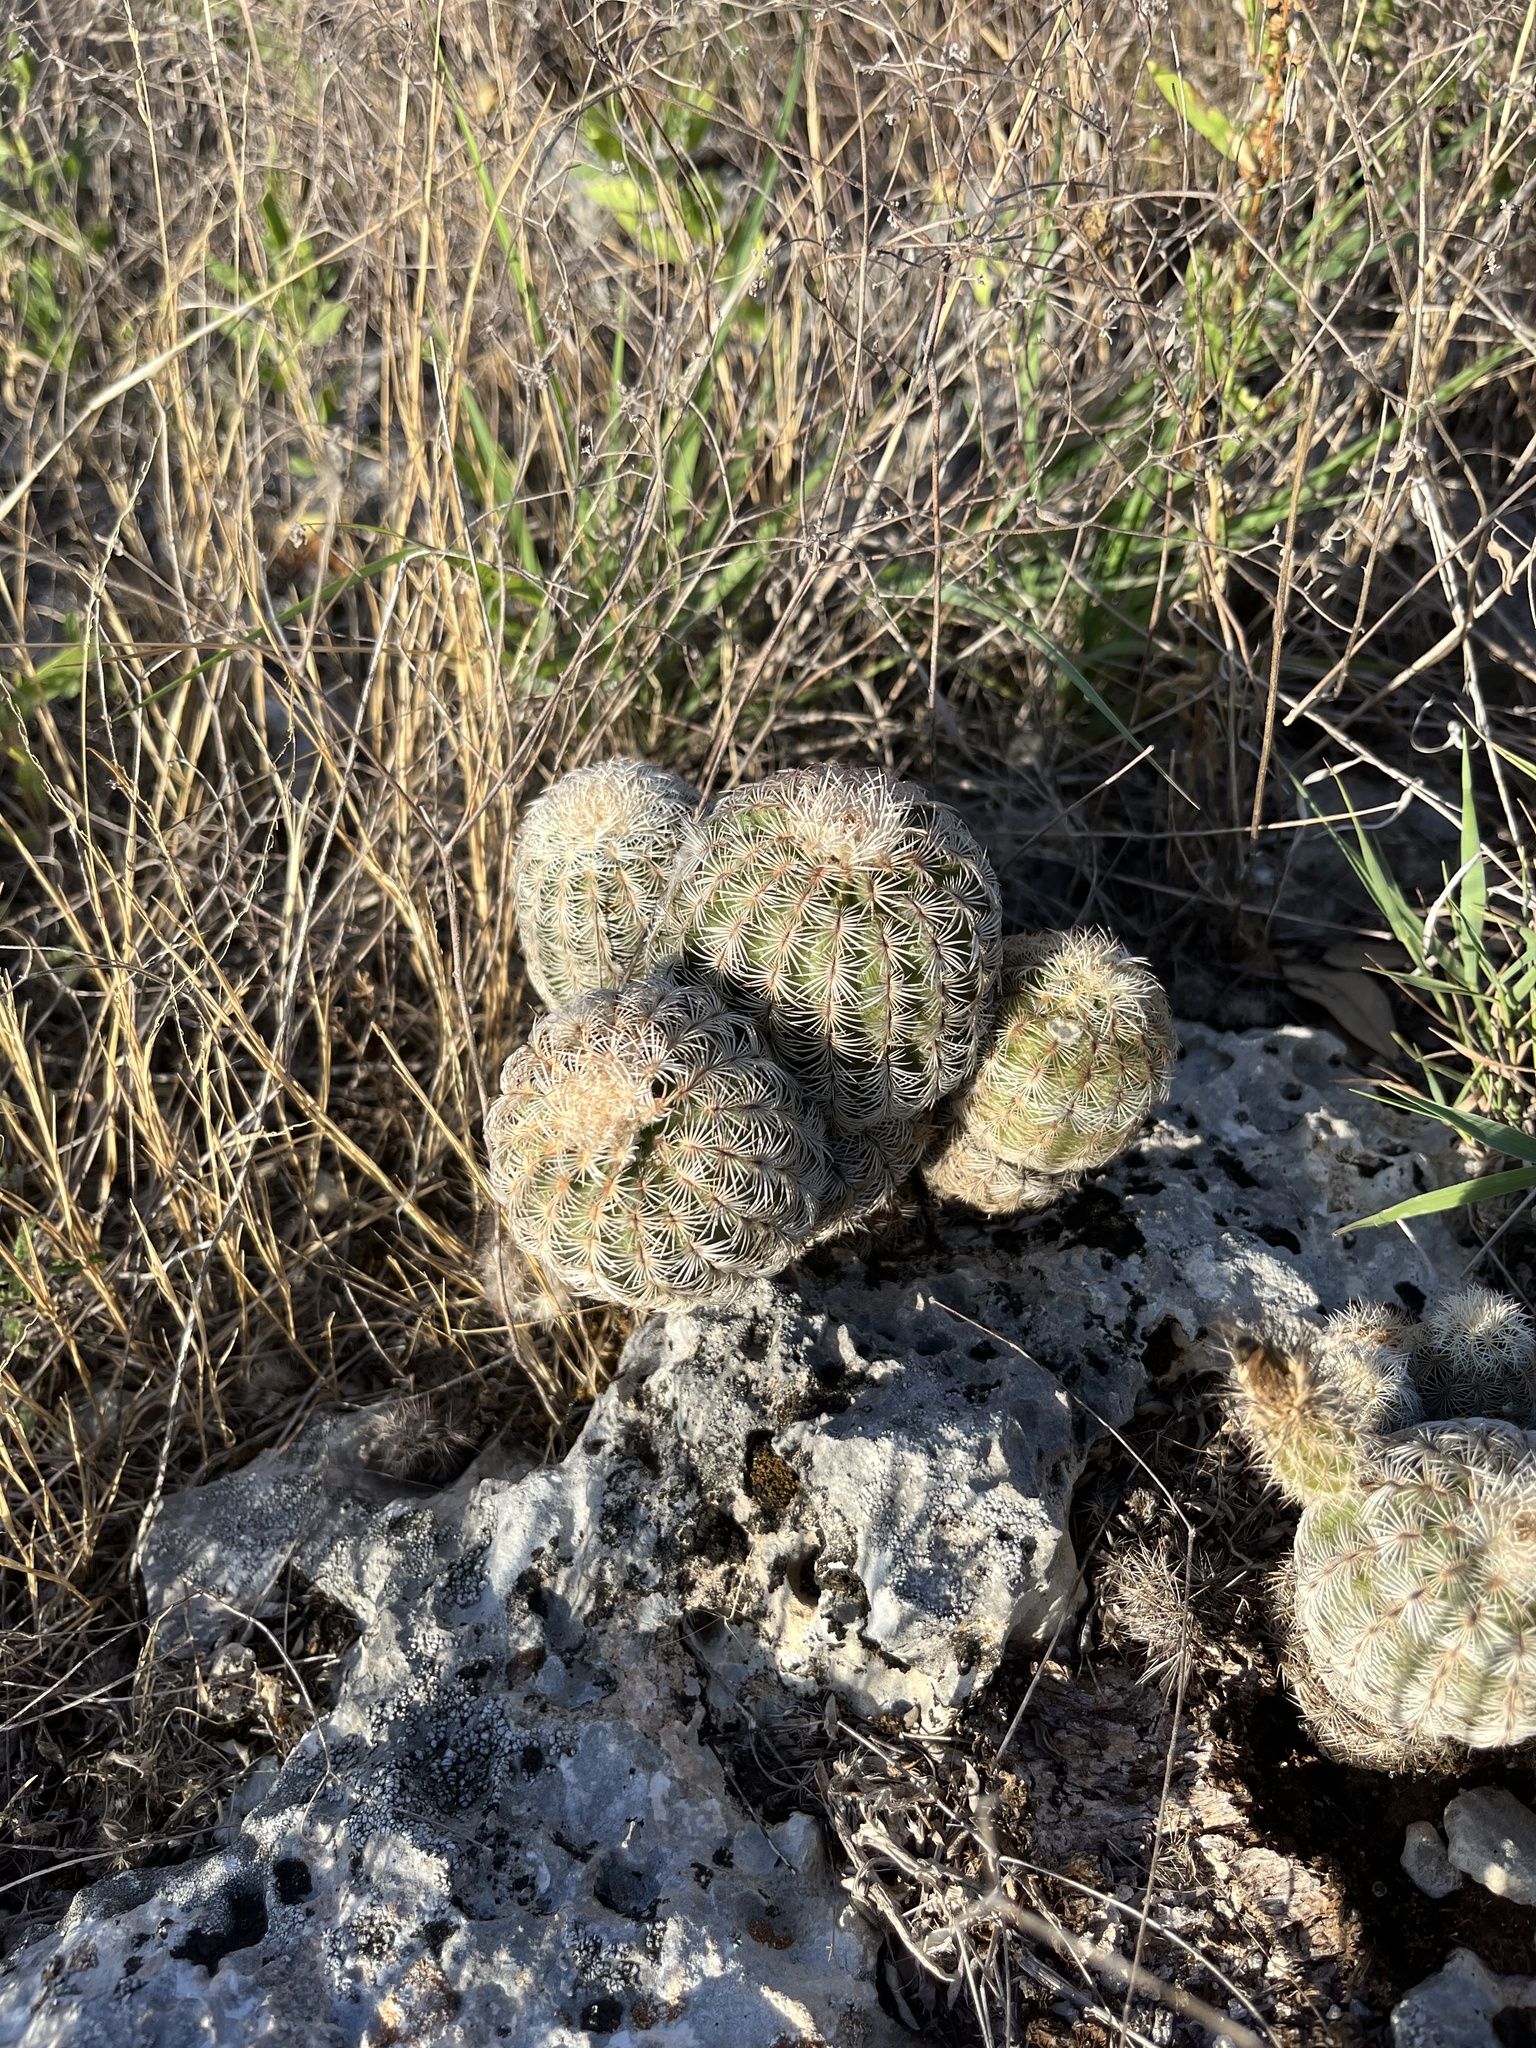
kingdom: Plantae
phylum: Tracheophyta
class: Magnoliopsida
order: Caryophyllales
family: Cactaceae
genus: Echinocereus
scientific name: Echinocereus reichenbachii
